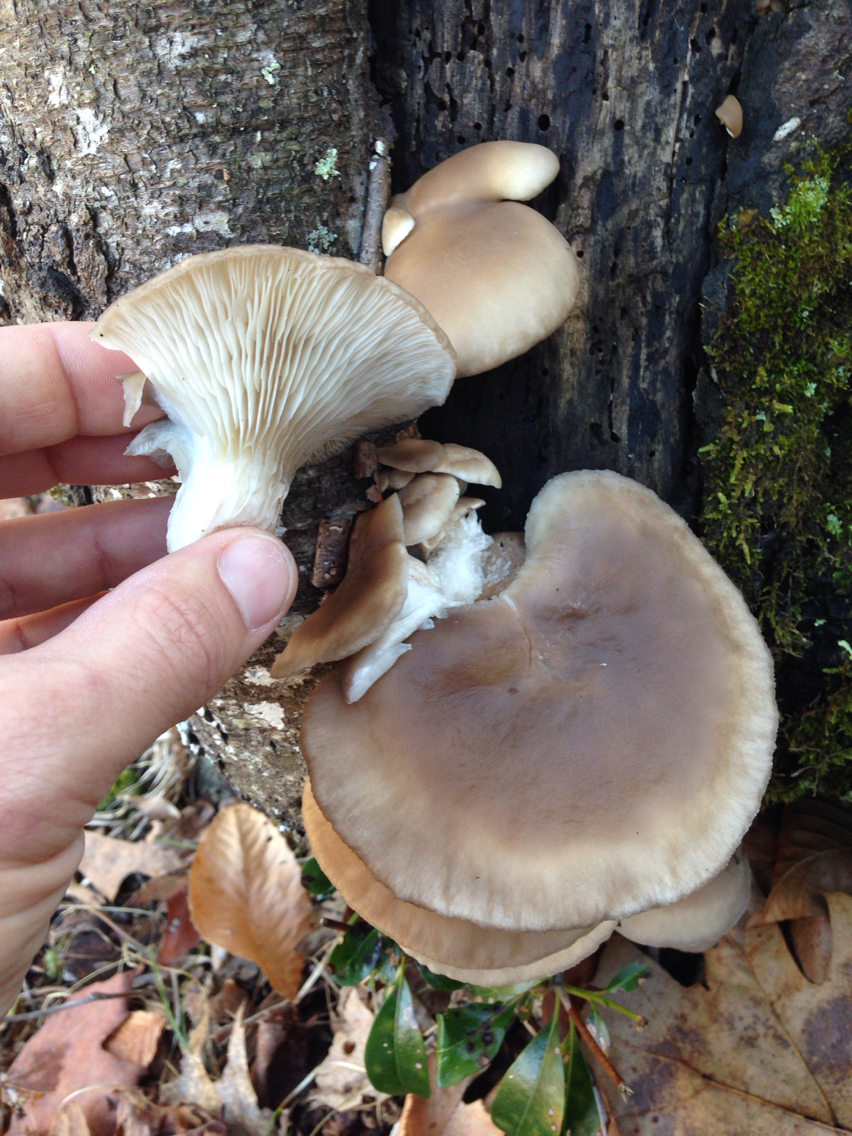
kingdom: Fungi
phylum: Basidiomycota
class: Agaricomycetes
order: Agaricales
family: Pleurotaceae
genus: Pleurotus
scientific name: Pleurotus ostreatus
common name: Oyster mushroom
